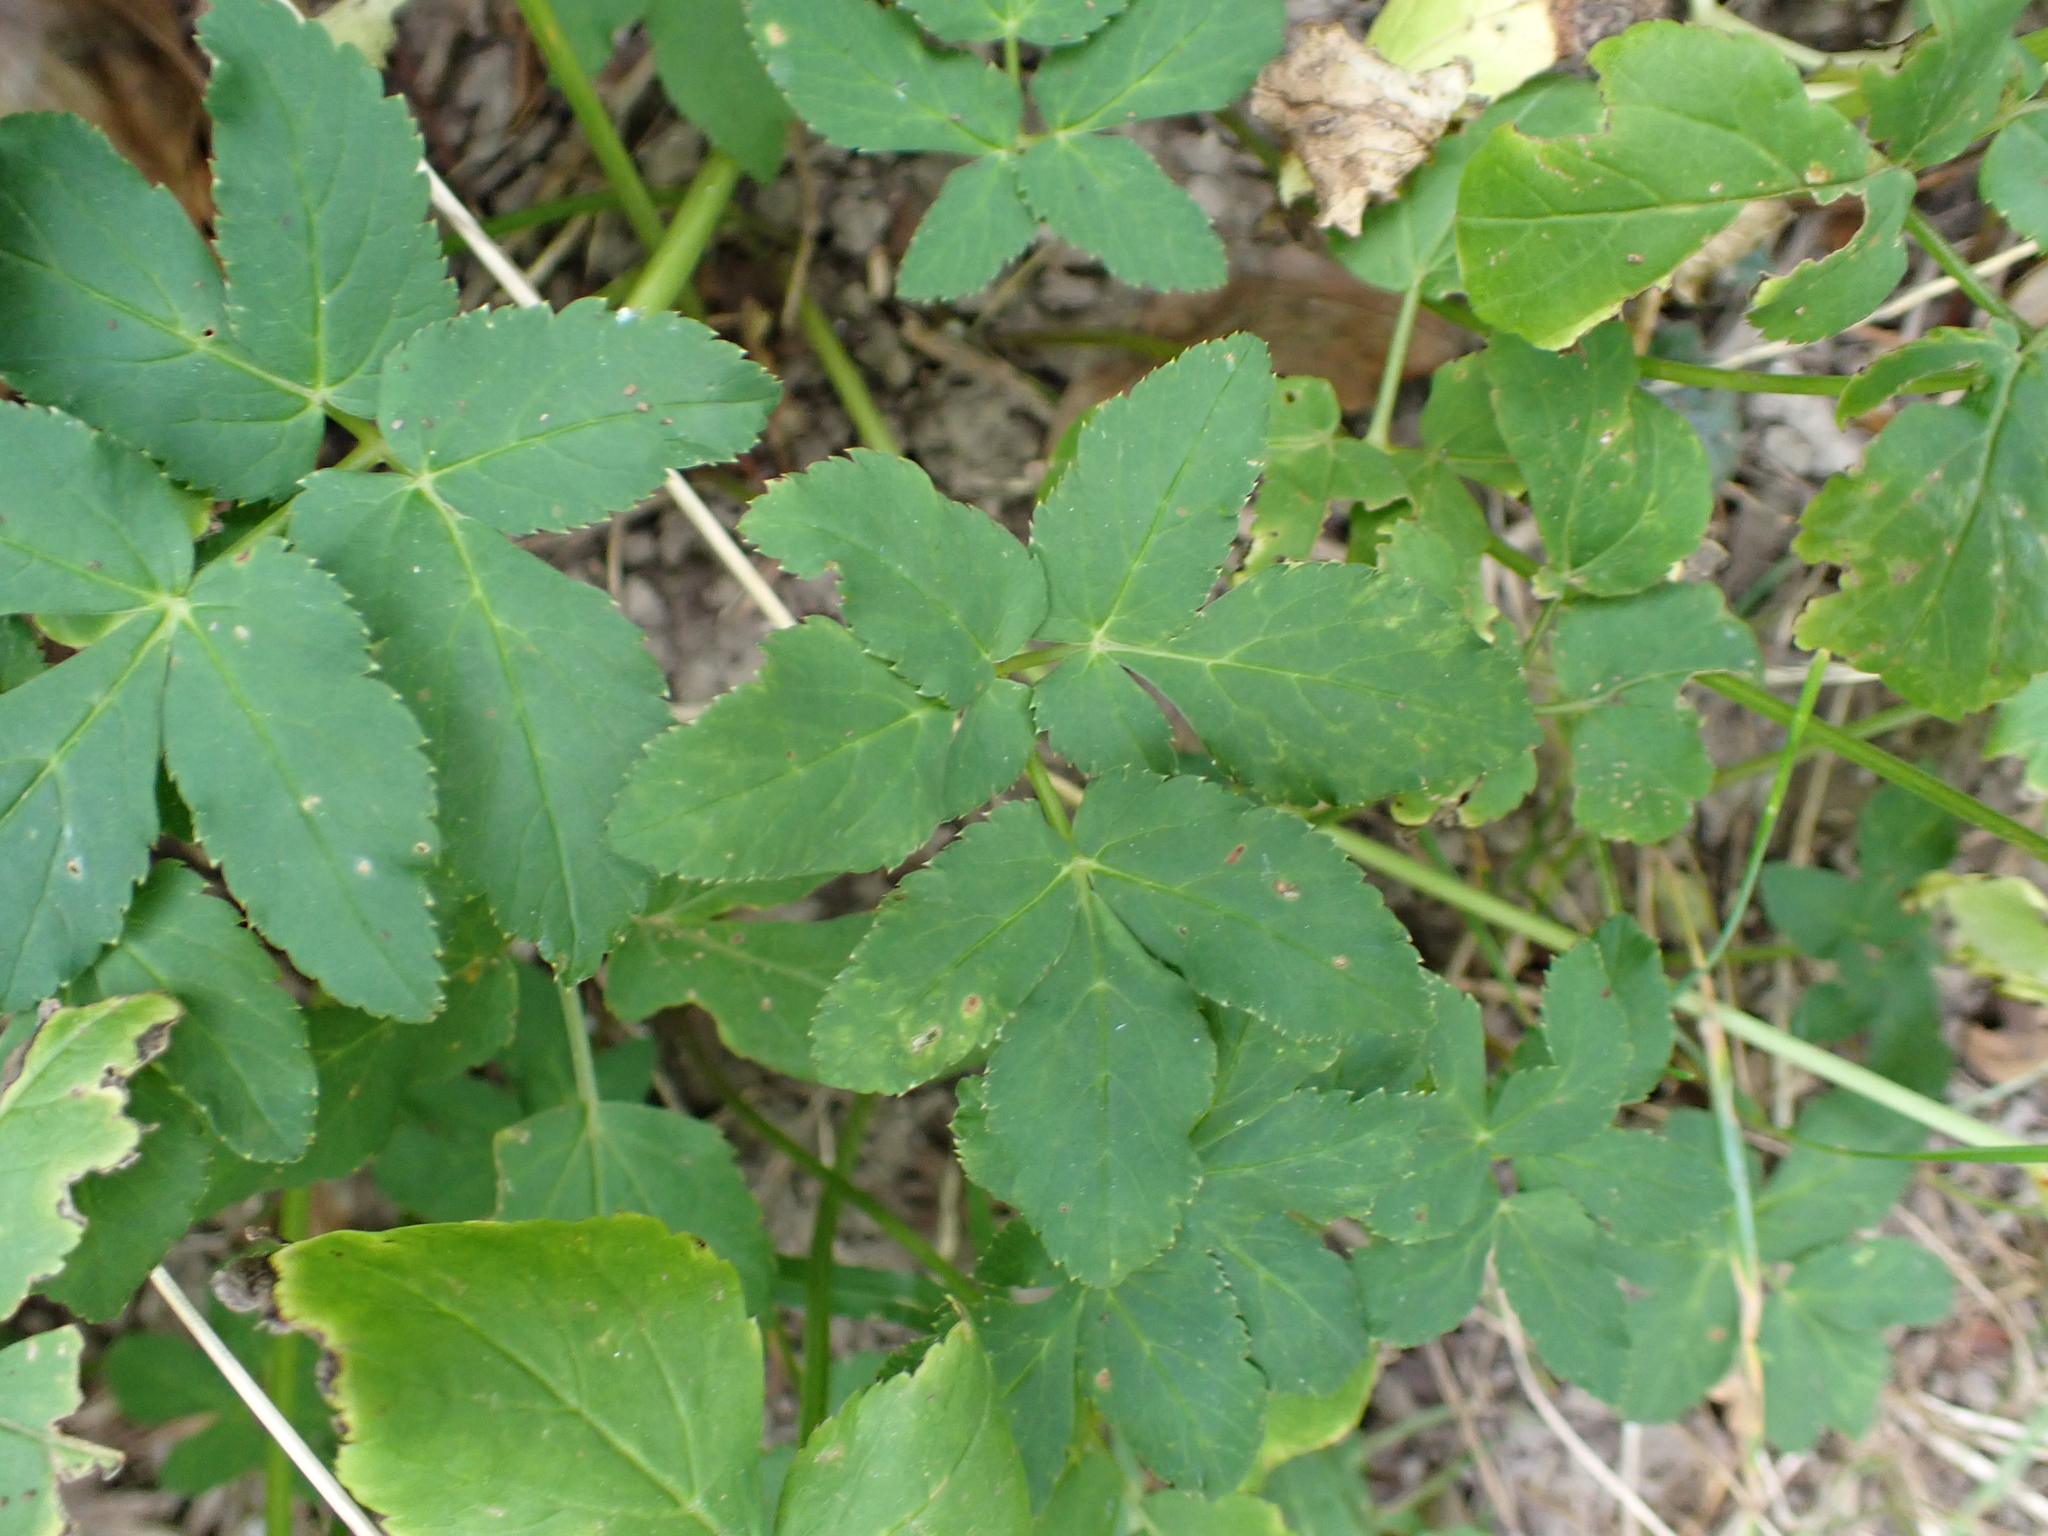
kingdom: Plantae
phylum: Tracheophyta
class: Magnoliopsida
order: Apiales
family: Apiaceae
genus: Aegopodium
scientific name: Aegopodium podagraria
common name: Ground-elder
